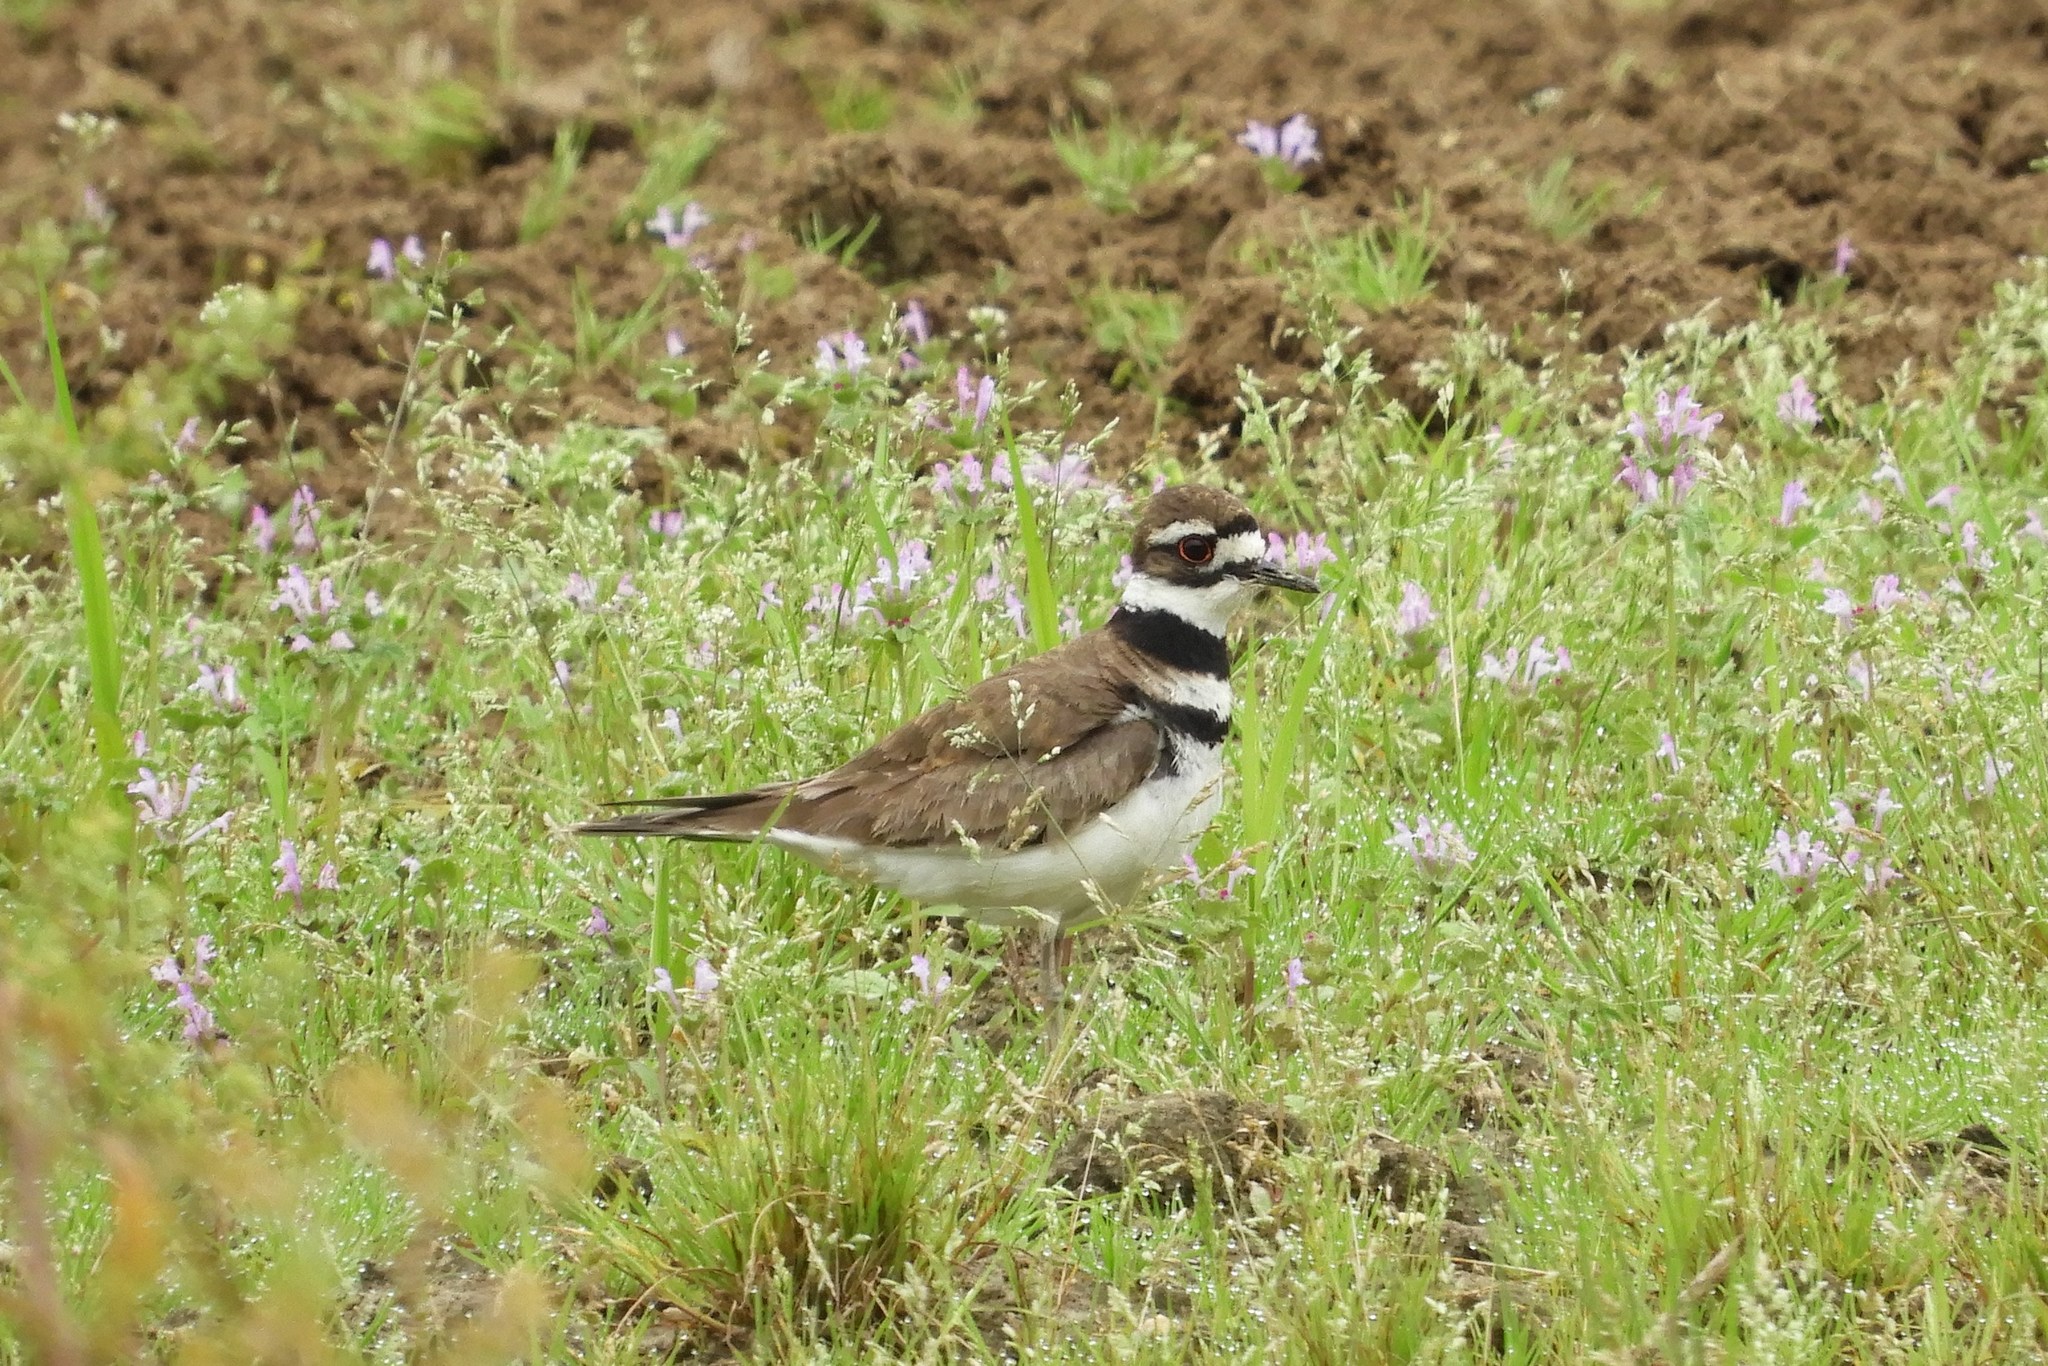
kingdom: Animalia
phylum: Chordata
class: Aves
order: Charadriiformes
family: Charadriidae
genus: Charadrius
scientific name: Charadrius vociferus
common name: Killdeer
